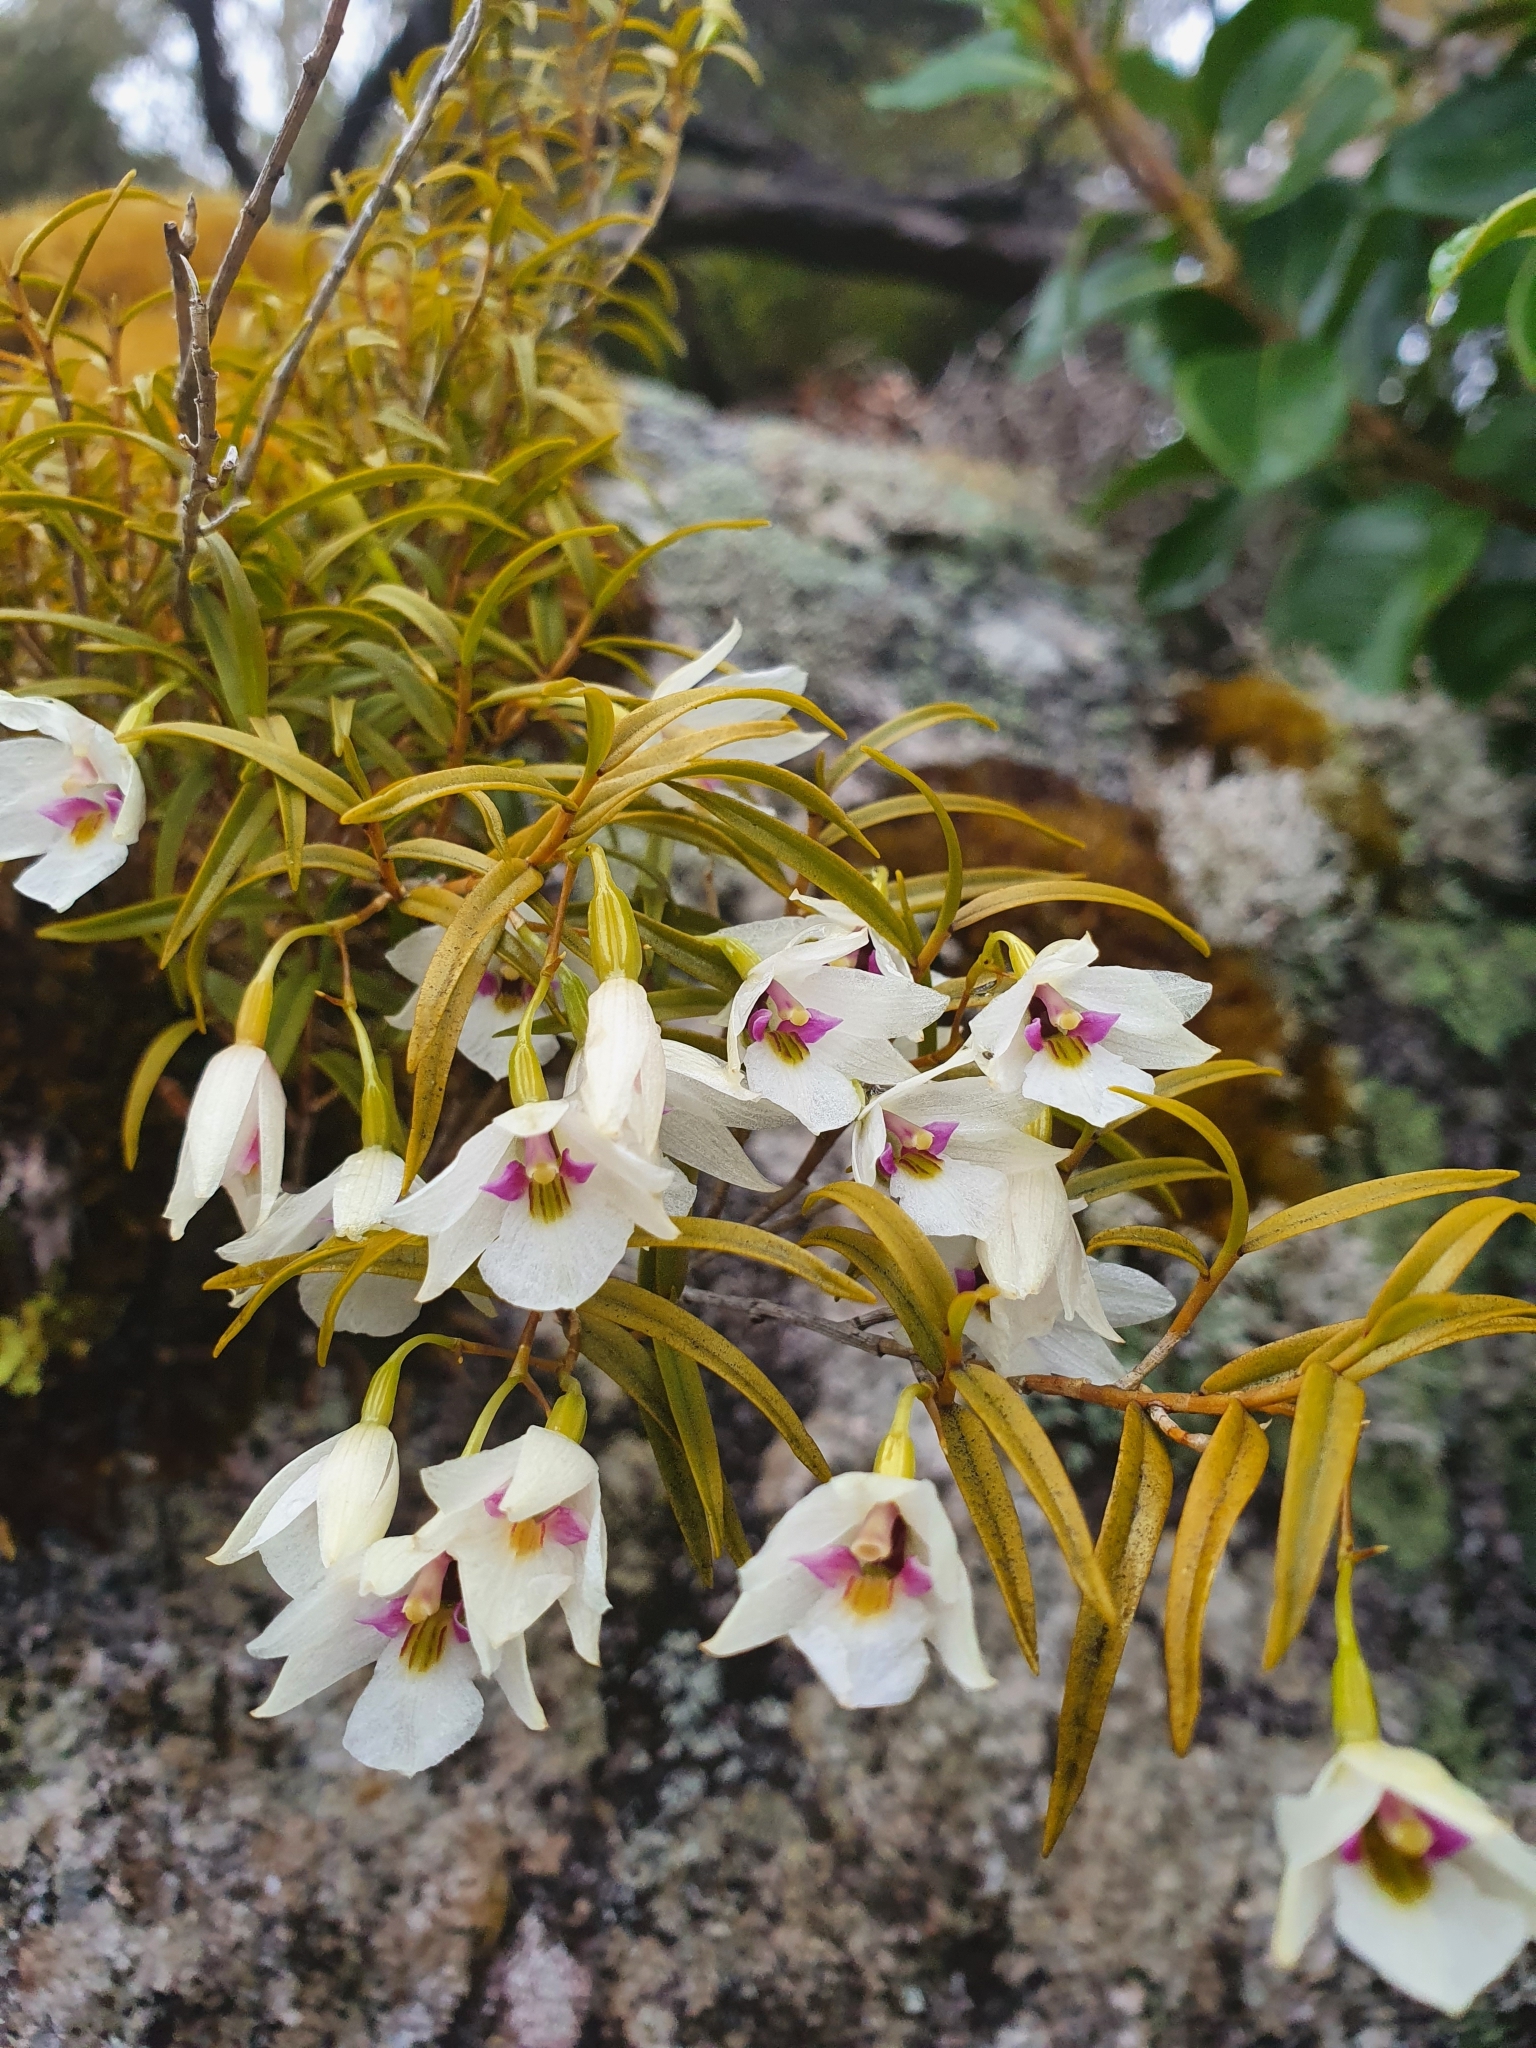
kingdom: Plantae
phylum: Tracheophyta
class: Liliopsida
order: Asparagales
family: Orchidaceae
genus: Dendrobium
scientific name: Dendrobium cunninghamii
